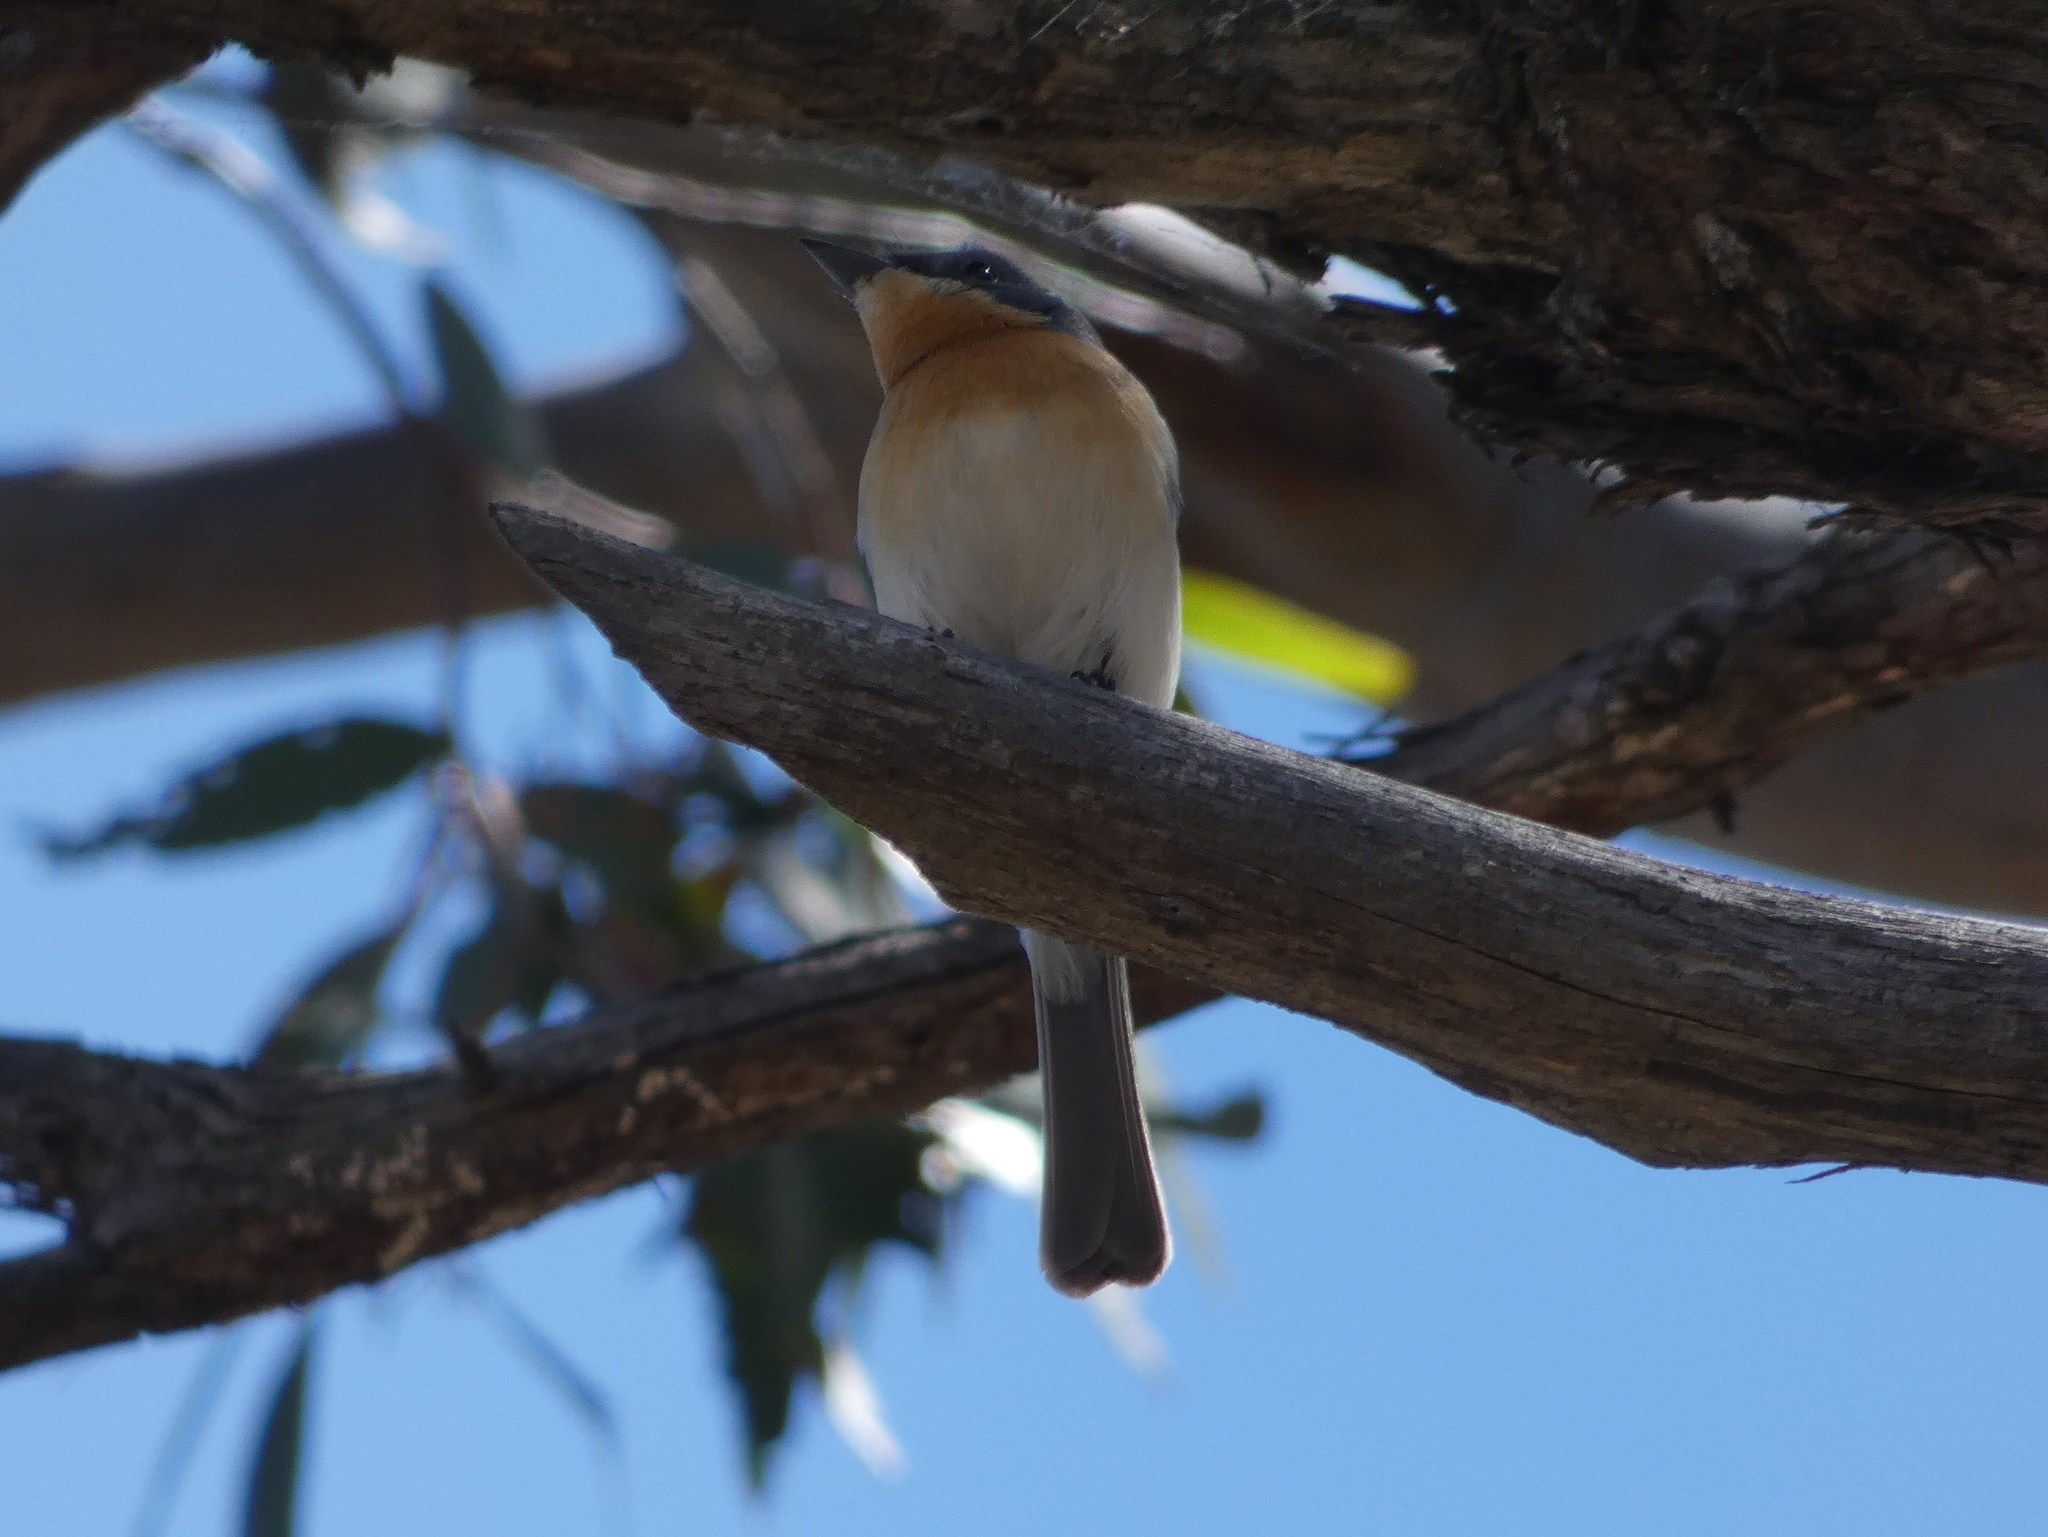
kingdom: Animalia
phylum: Chordata
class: Aves
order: Passeriformes
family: Monarchidae
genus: Myiagra
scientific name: Myiagra rubecula
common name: Leaden flycatcher
